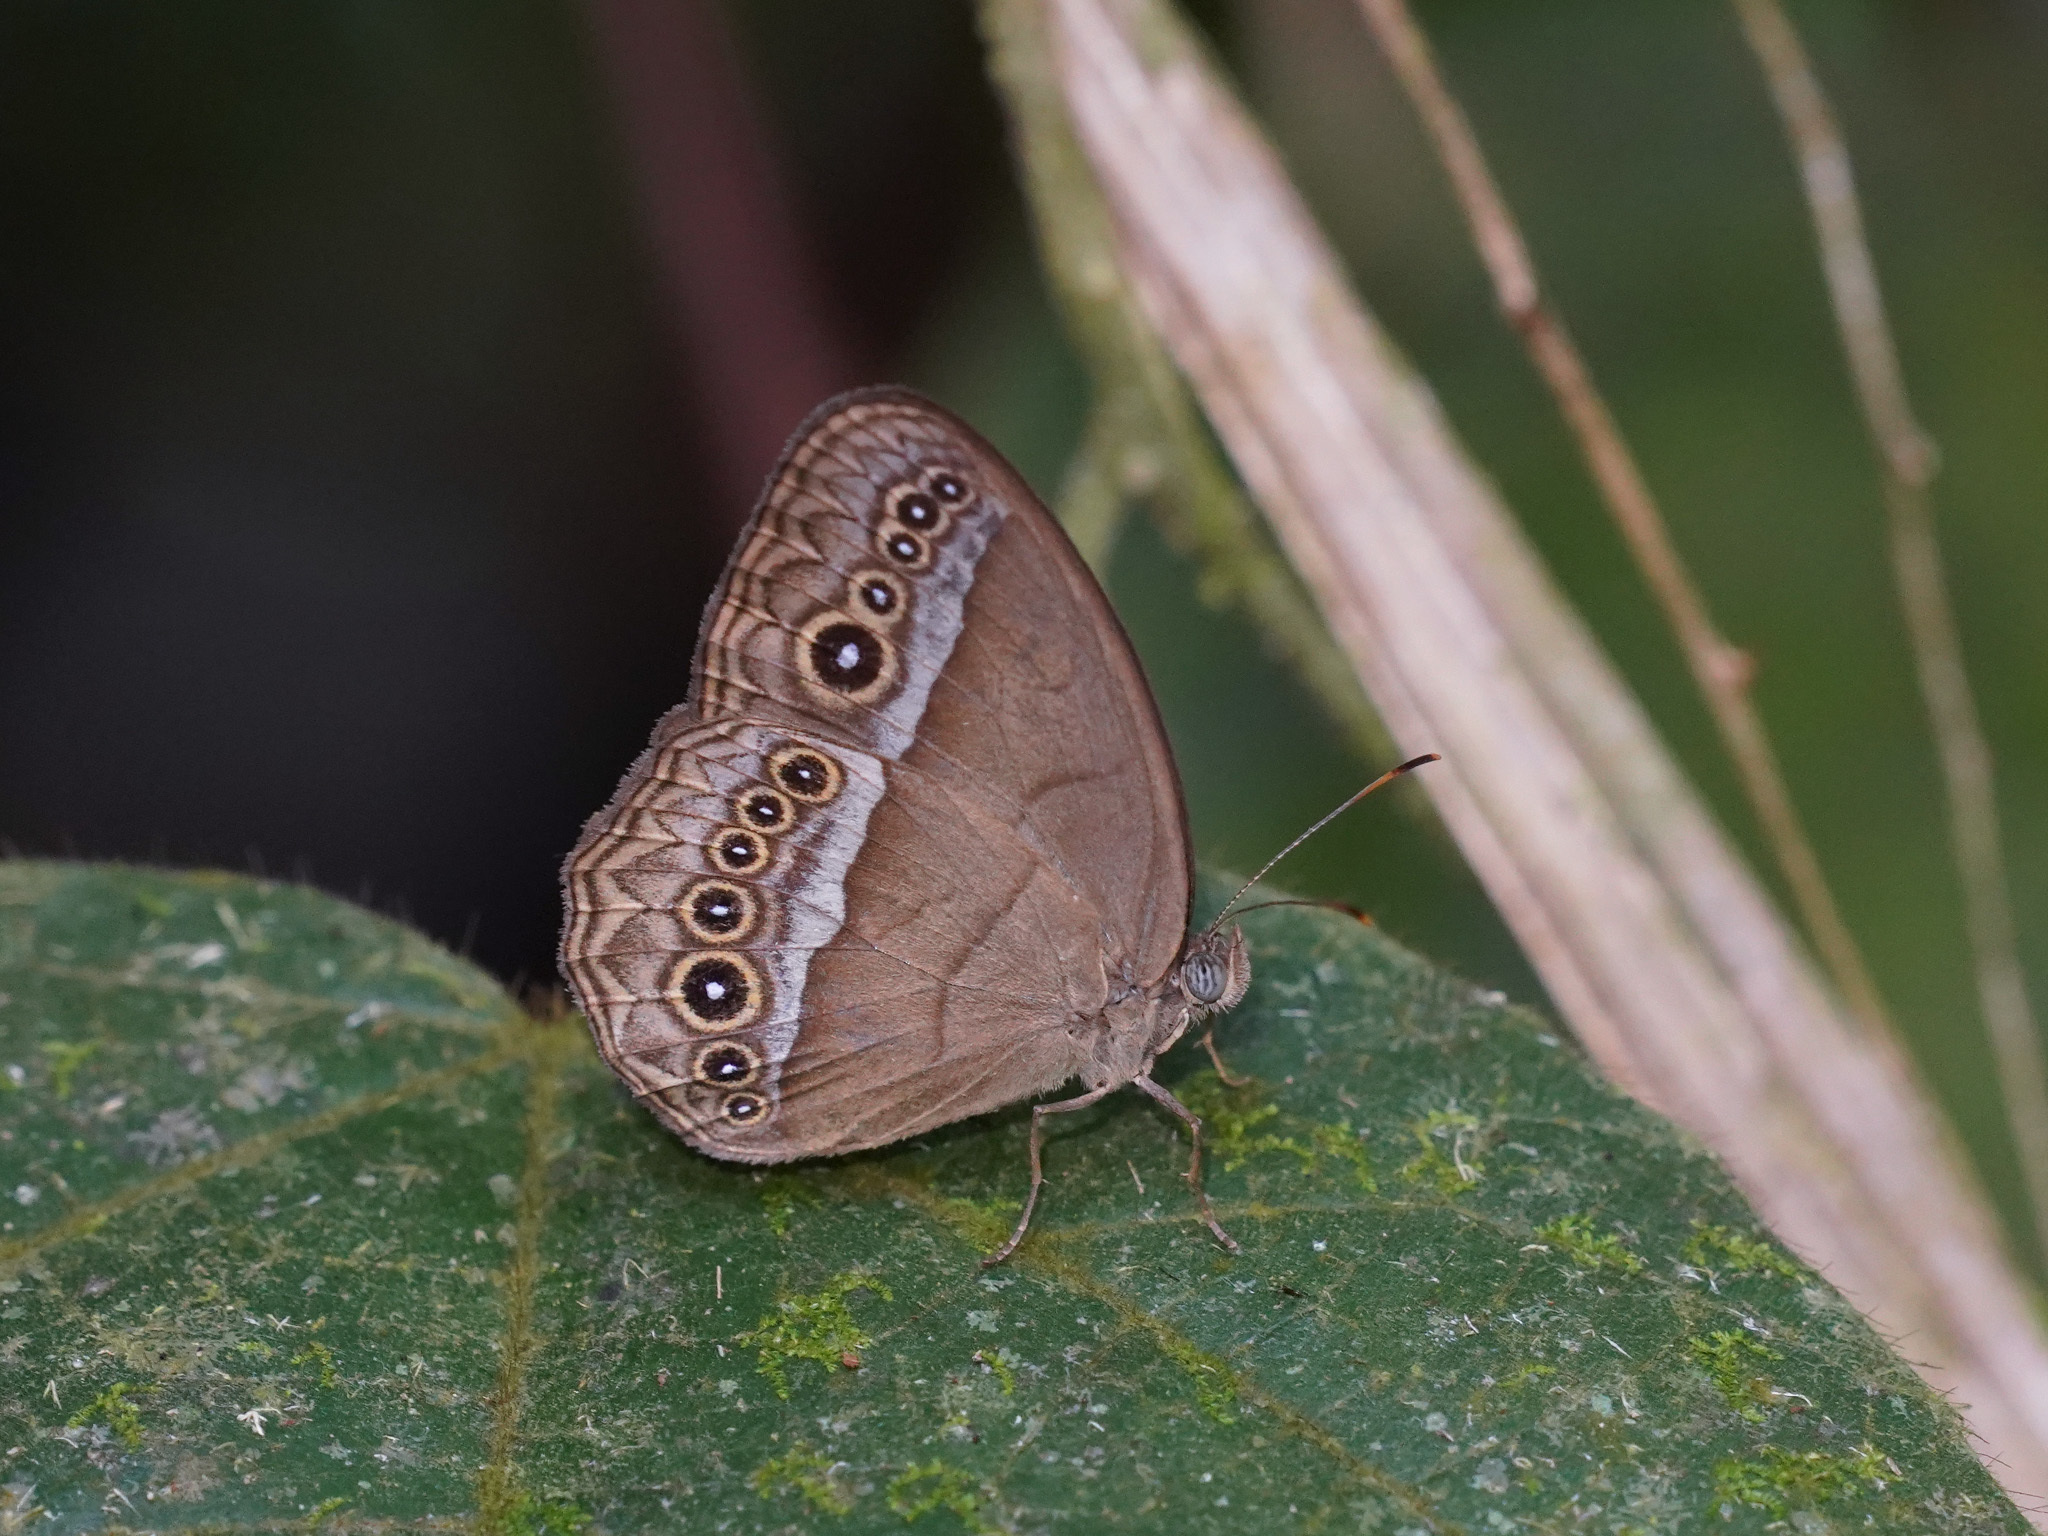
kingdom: Animalia
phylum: Arthropoda
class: Insecta
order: Lepidoptera
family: Nymphalidae
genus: Mycalesis
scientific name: Mycalesis orseis
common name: Purple bushbrown
